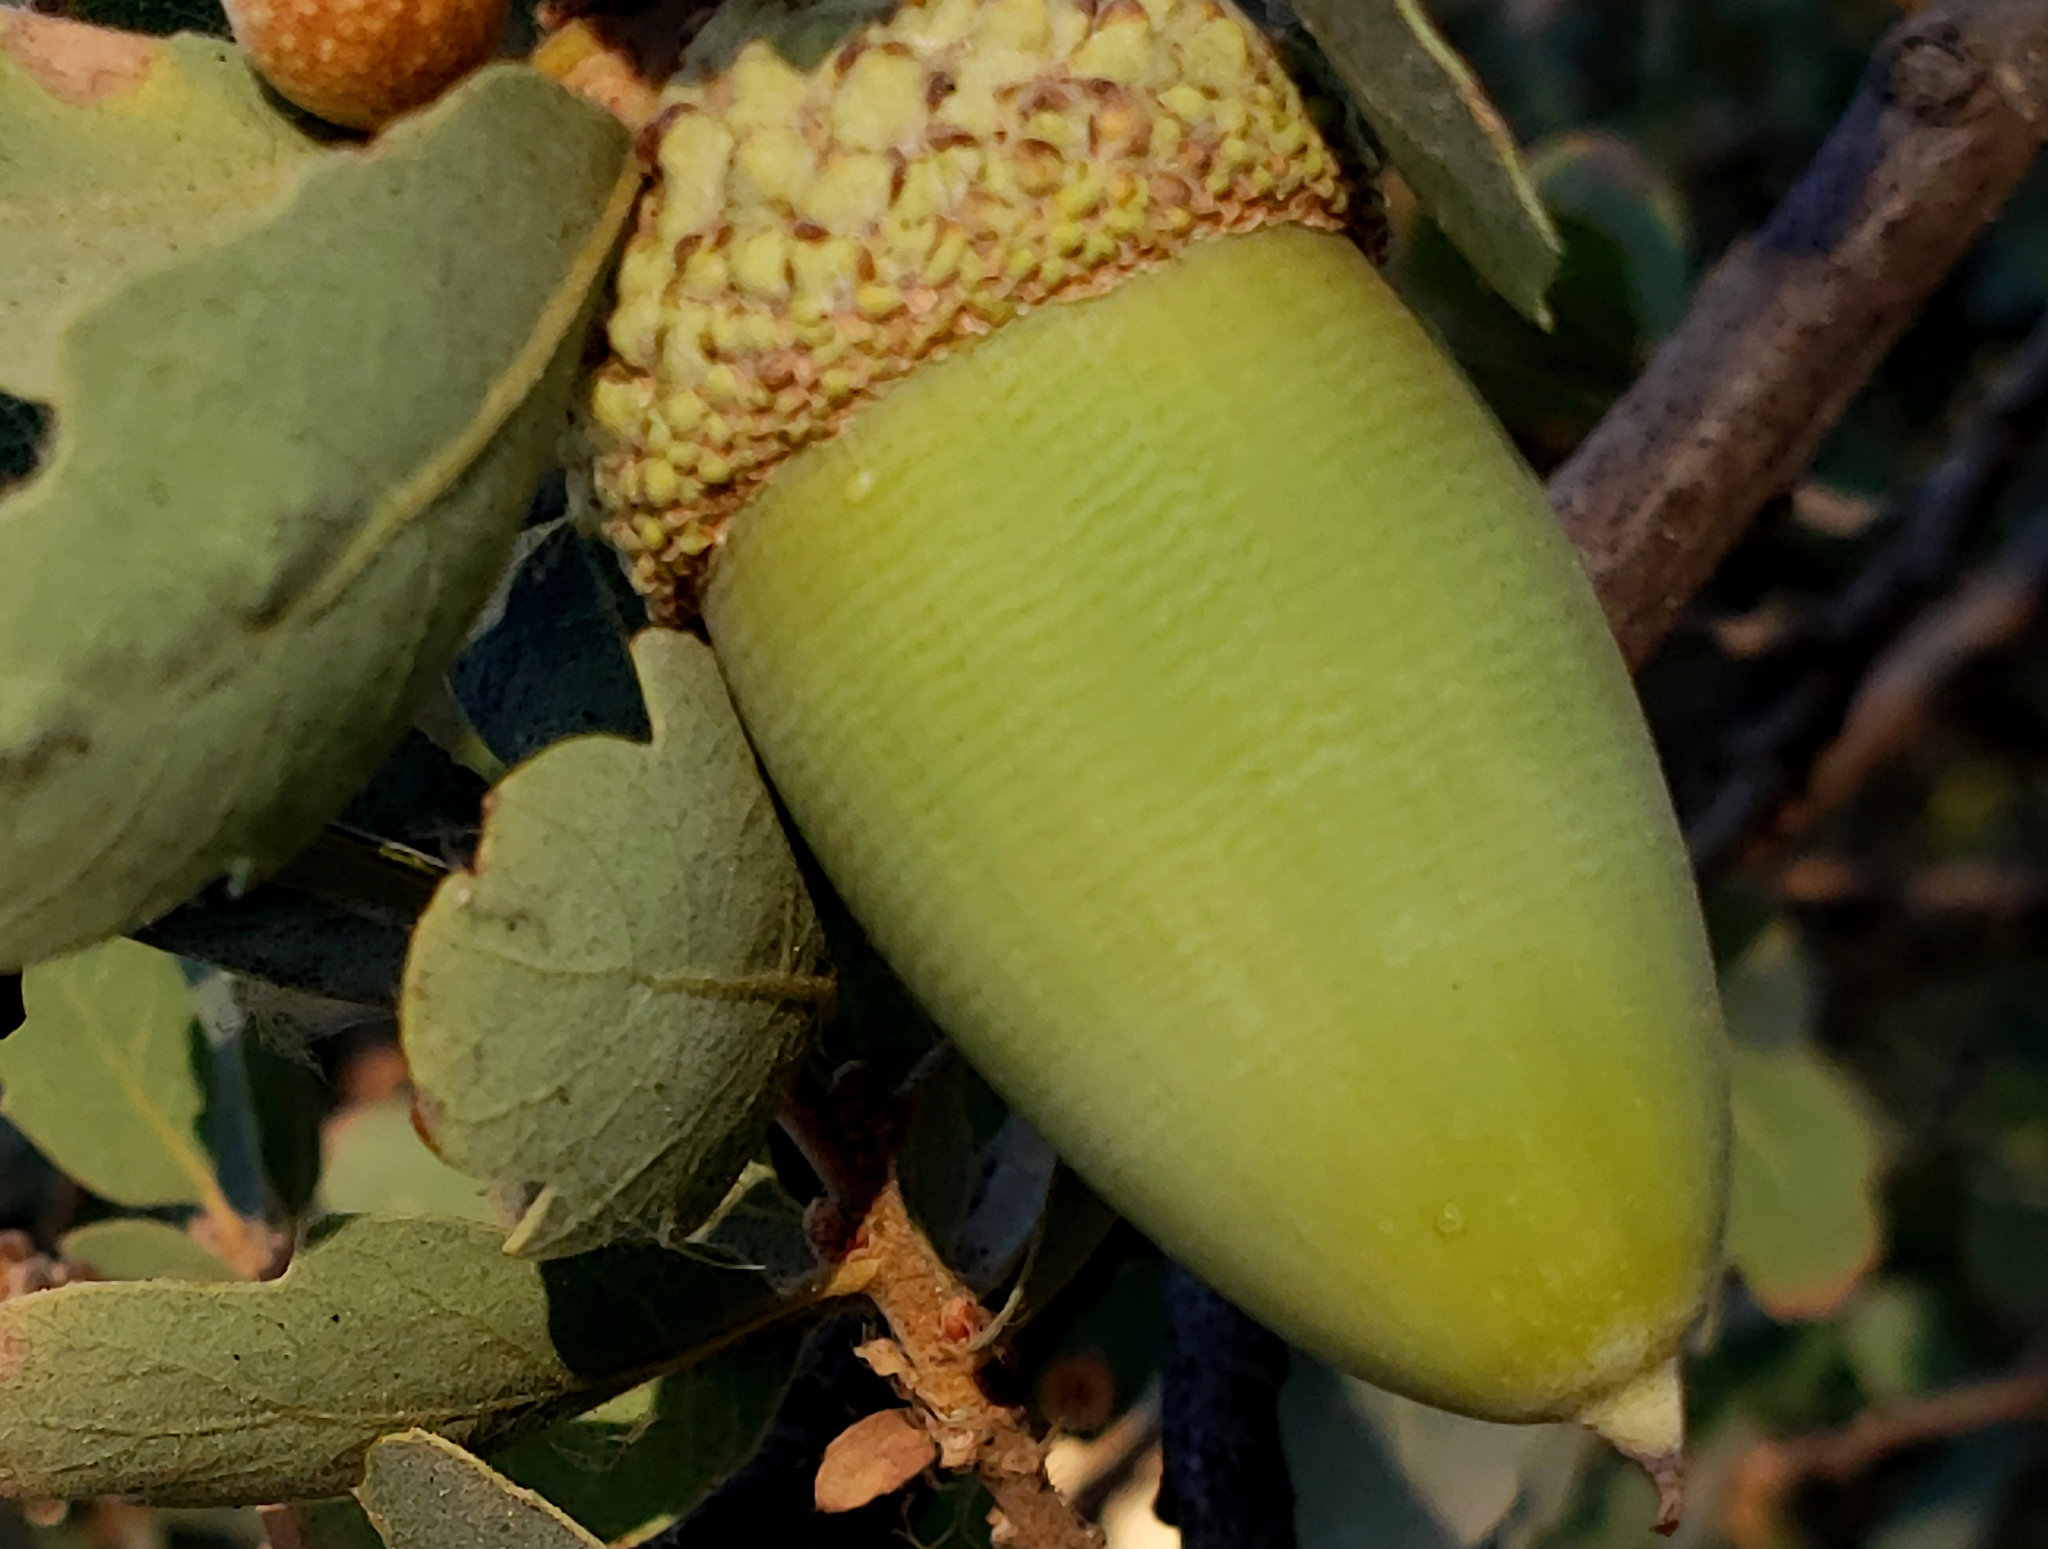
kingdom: Plantae
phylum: Tracheophyta
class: Magnoliopsida
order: Fagales
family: Fagaceae
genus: Quercus
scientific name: Quercus douglasii
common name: Blue oak
